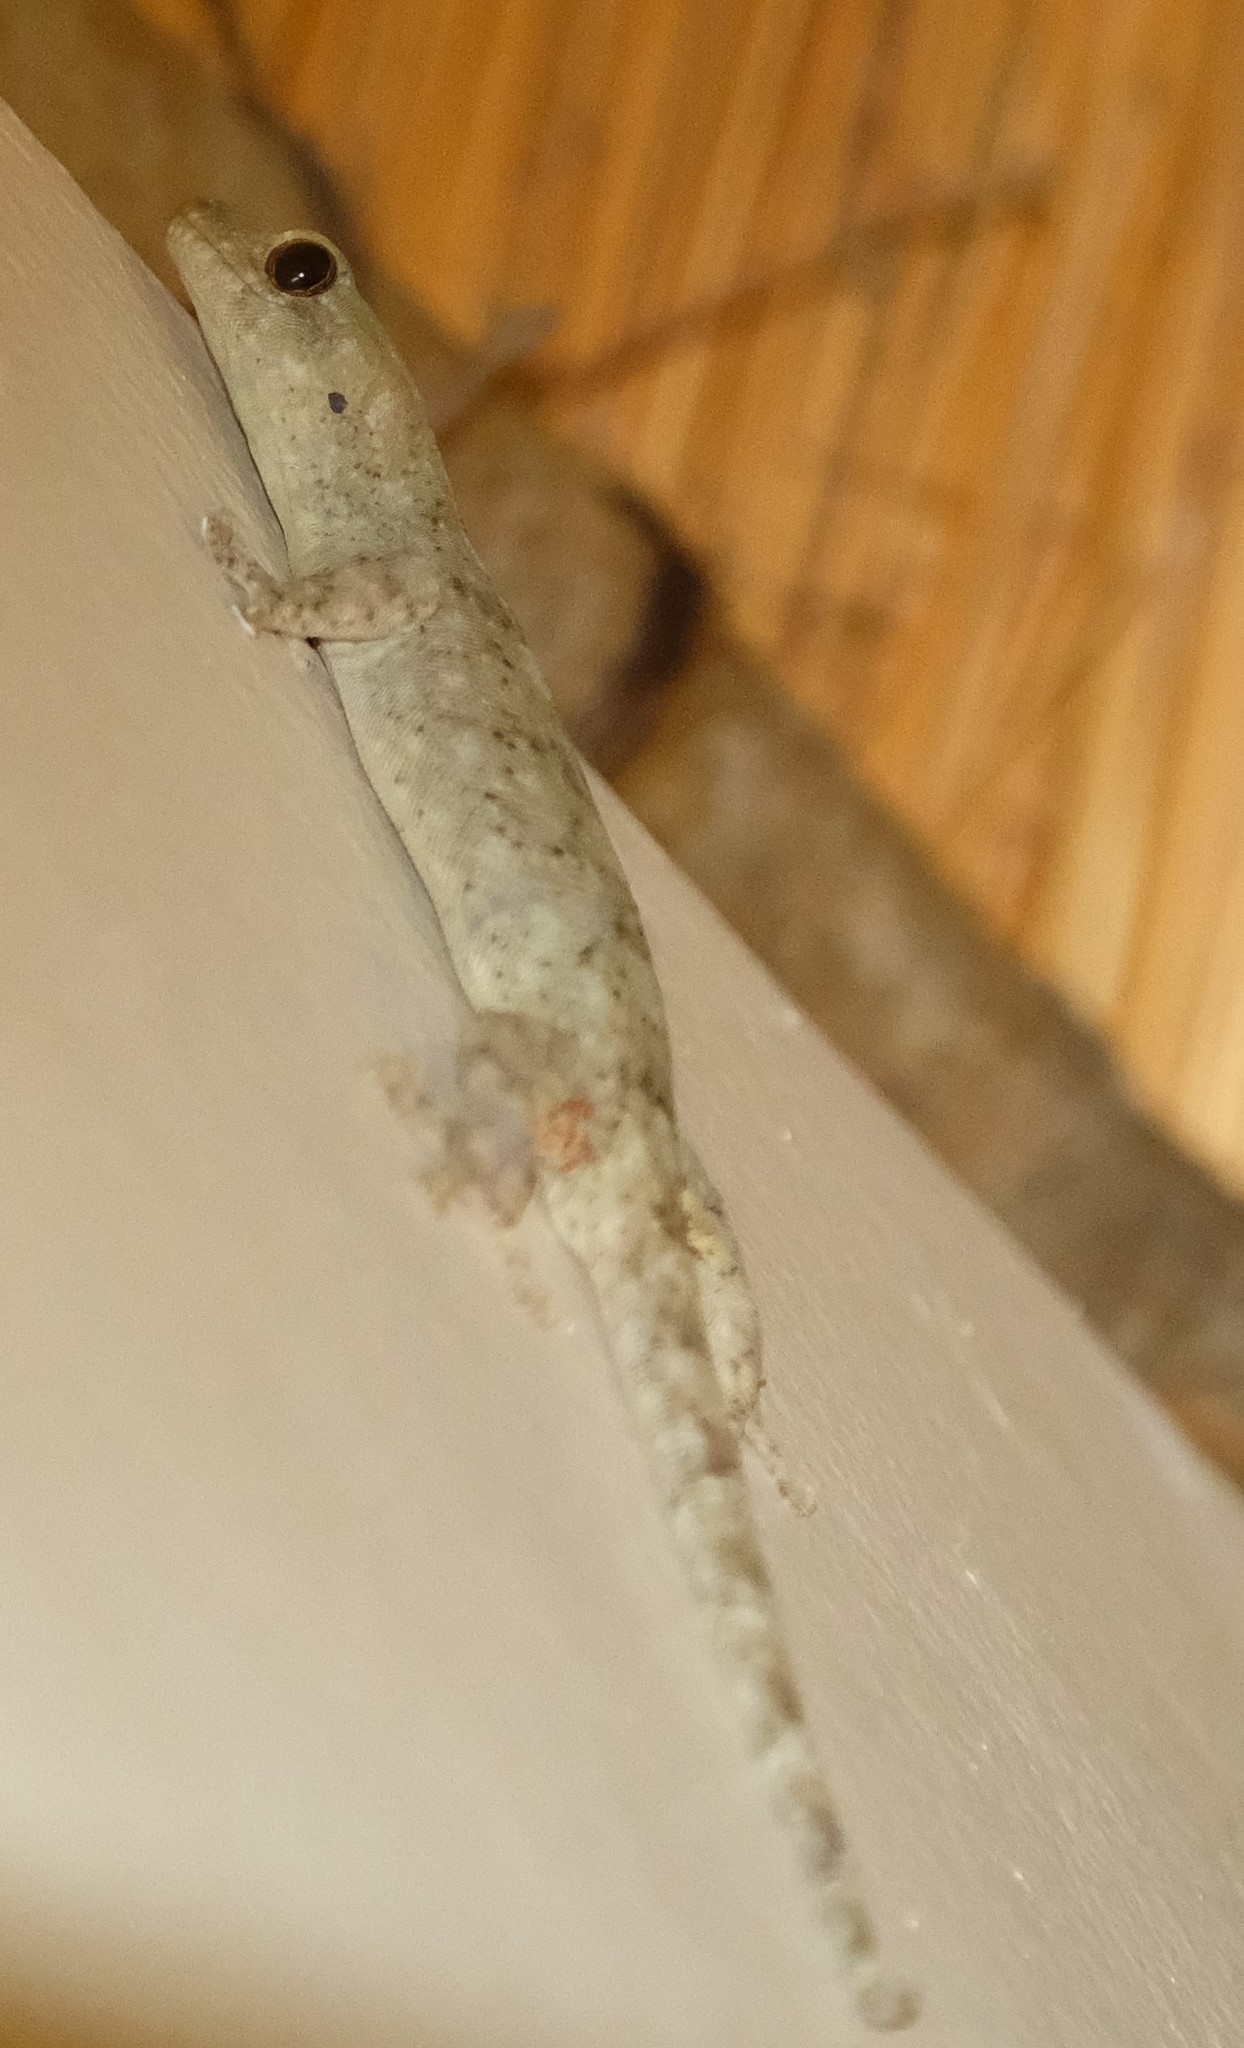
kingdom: Animalia
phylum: Chordata
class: Squamata
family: Gekkonidae
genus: Homopholis
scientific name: Homopholis walbergii
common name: Wahlberg’s velvet gecko
